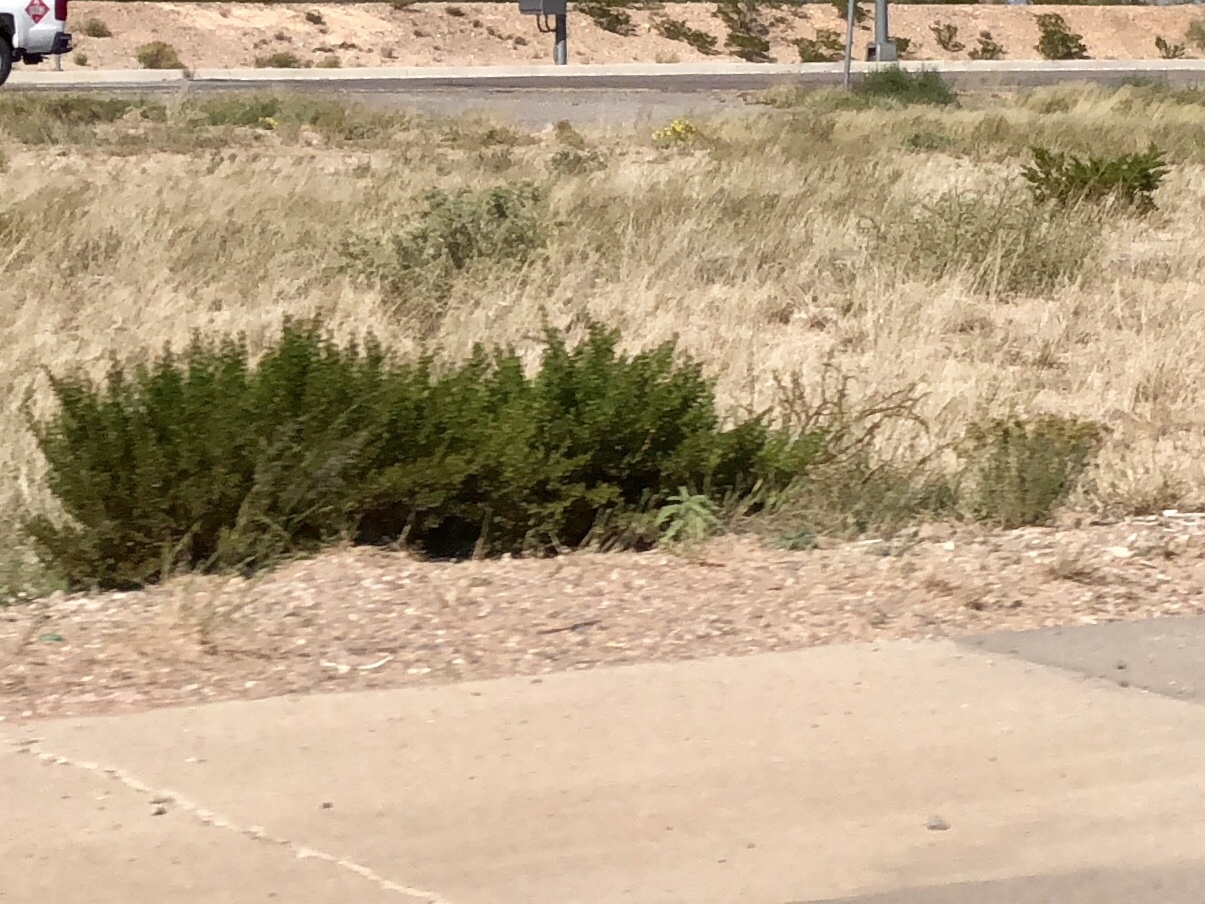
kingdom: Plantae
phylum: Tracheophyta
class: Magnoliopsida
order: Zygophyllales
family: Zygophyllaceae
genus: Larrea
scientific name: Larrea tridentata
